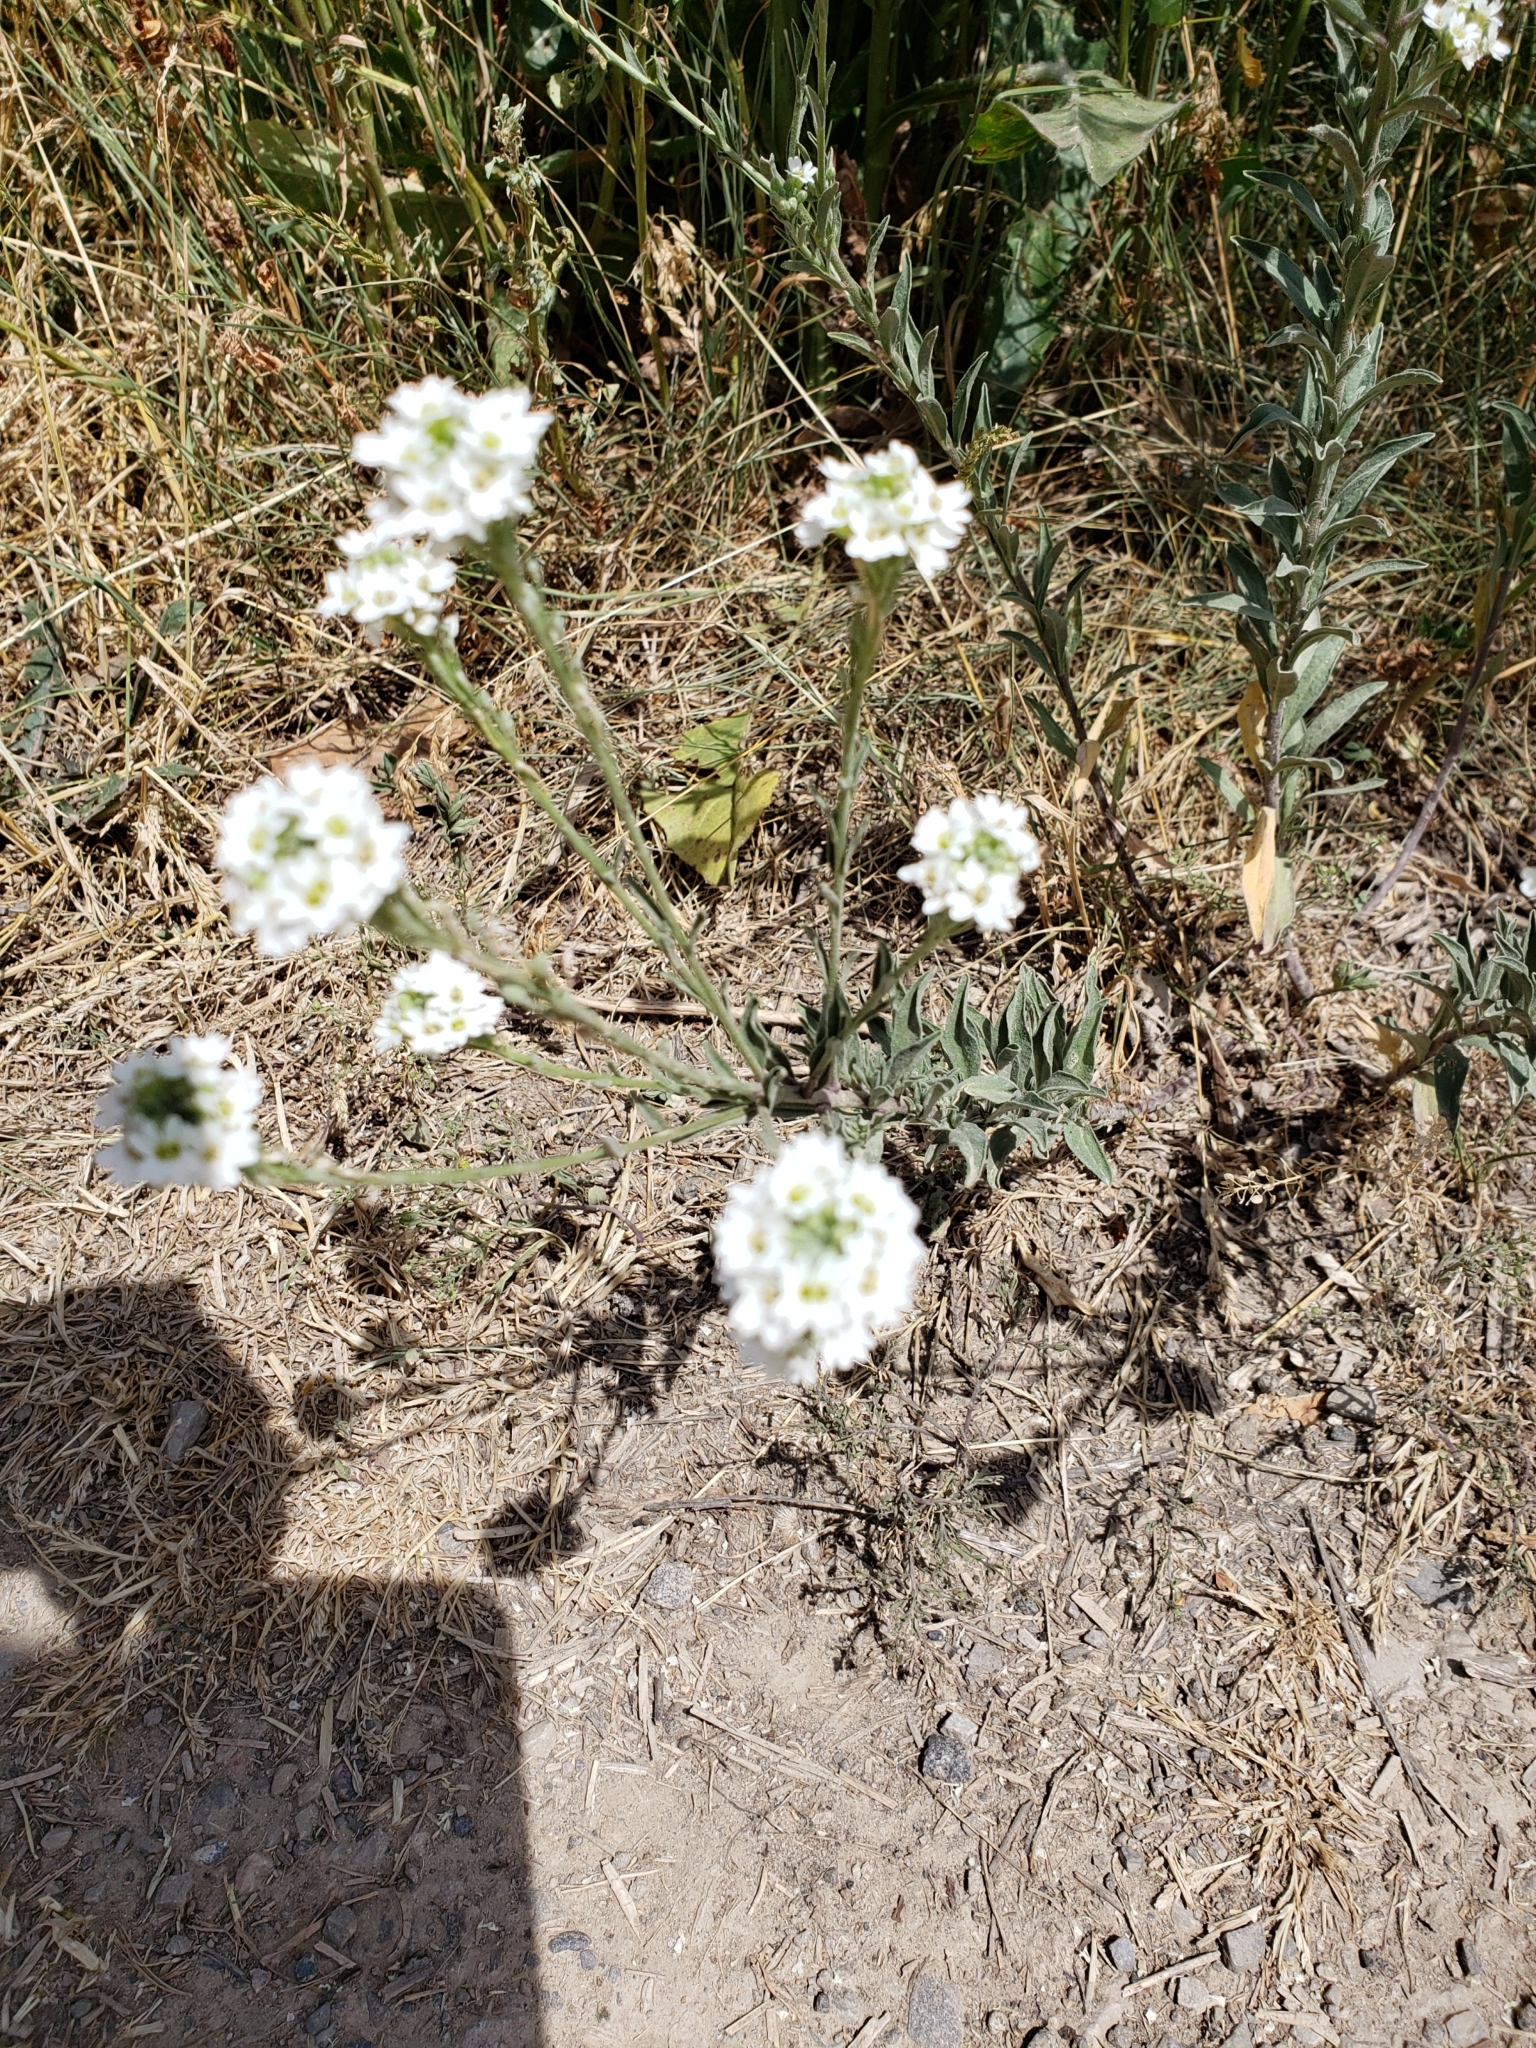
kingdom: Plantae
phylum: Tracheophyta
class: Magnoliopsida
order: Brassicales
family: Brassicaceae
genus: Berteroa
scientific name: Berteroa incana
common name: Hoary alison
